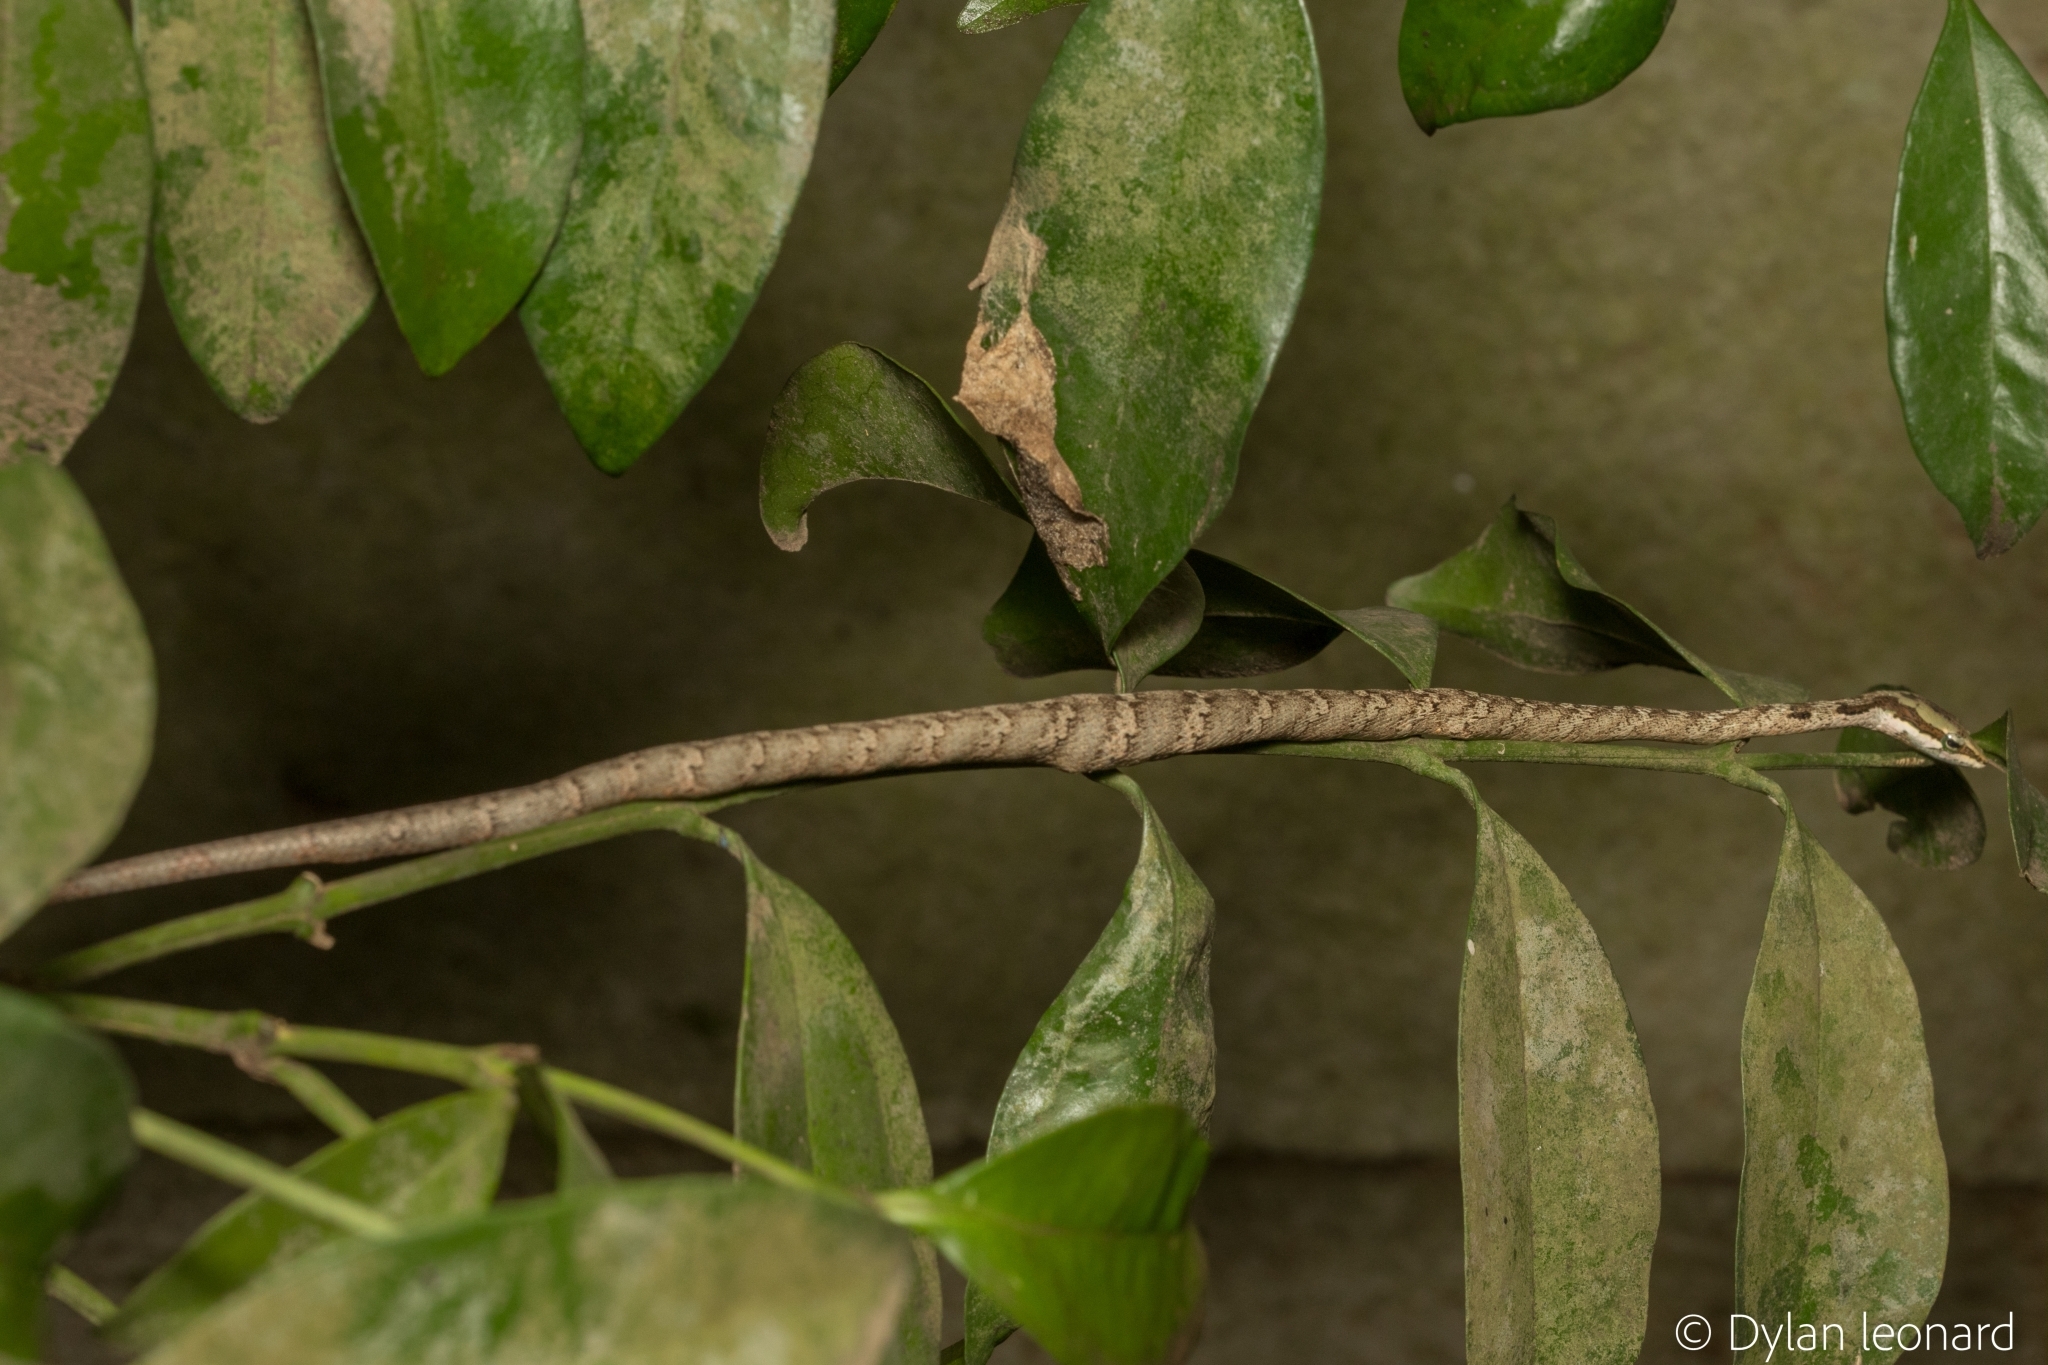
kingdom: Animalia
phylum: Chordata
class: Squamata
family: Colubridae
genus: Thelotornis
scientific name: Thelotornis capensis
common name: Savanna vine snake
